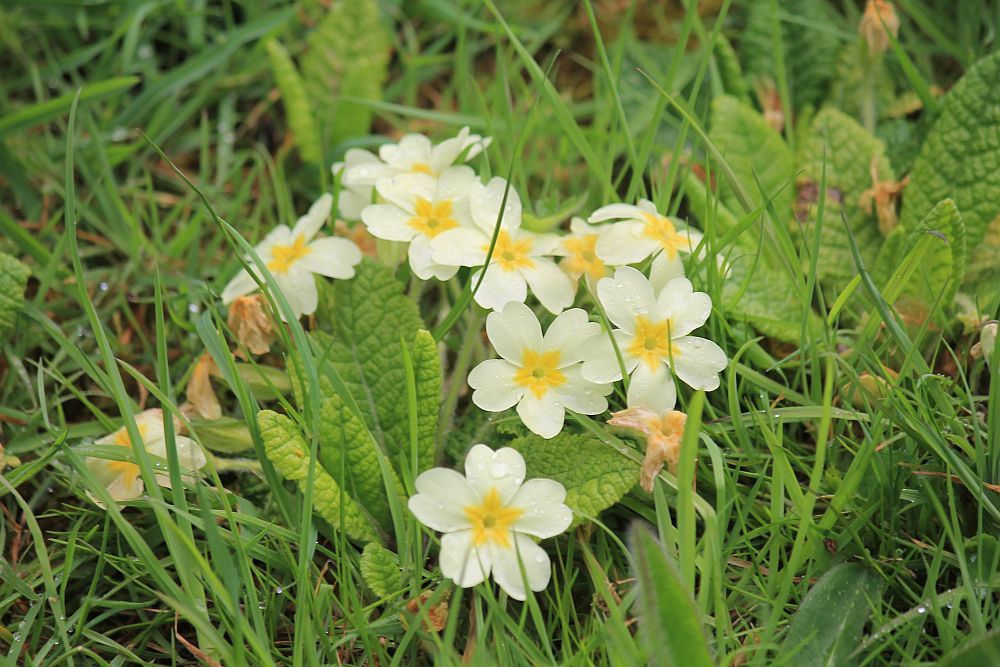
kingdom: Plantae
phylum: Tracheophyta
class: Magnoliopsida
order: Ericales
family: Primulaceae
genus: Primula
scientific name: Primula vulgaris
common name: Primrose
